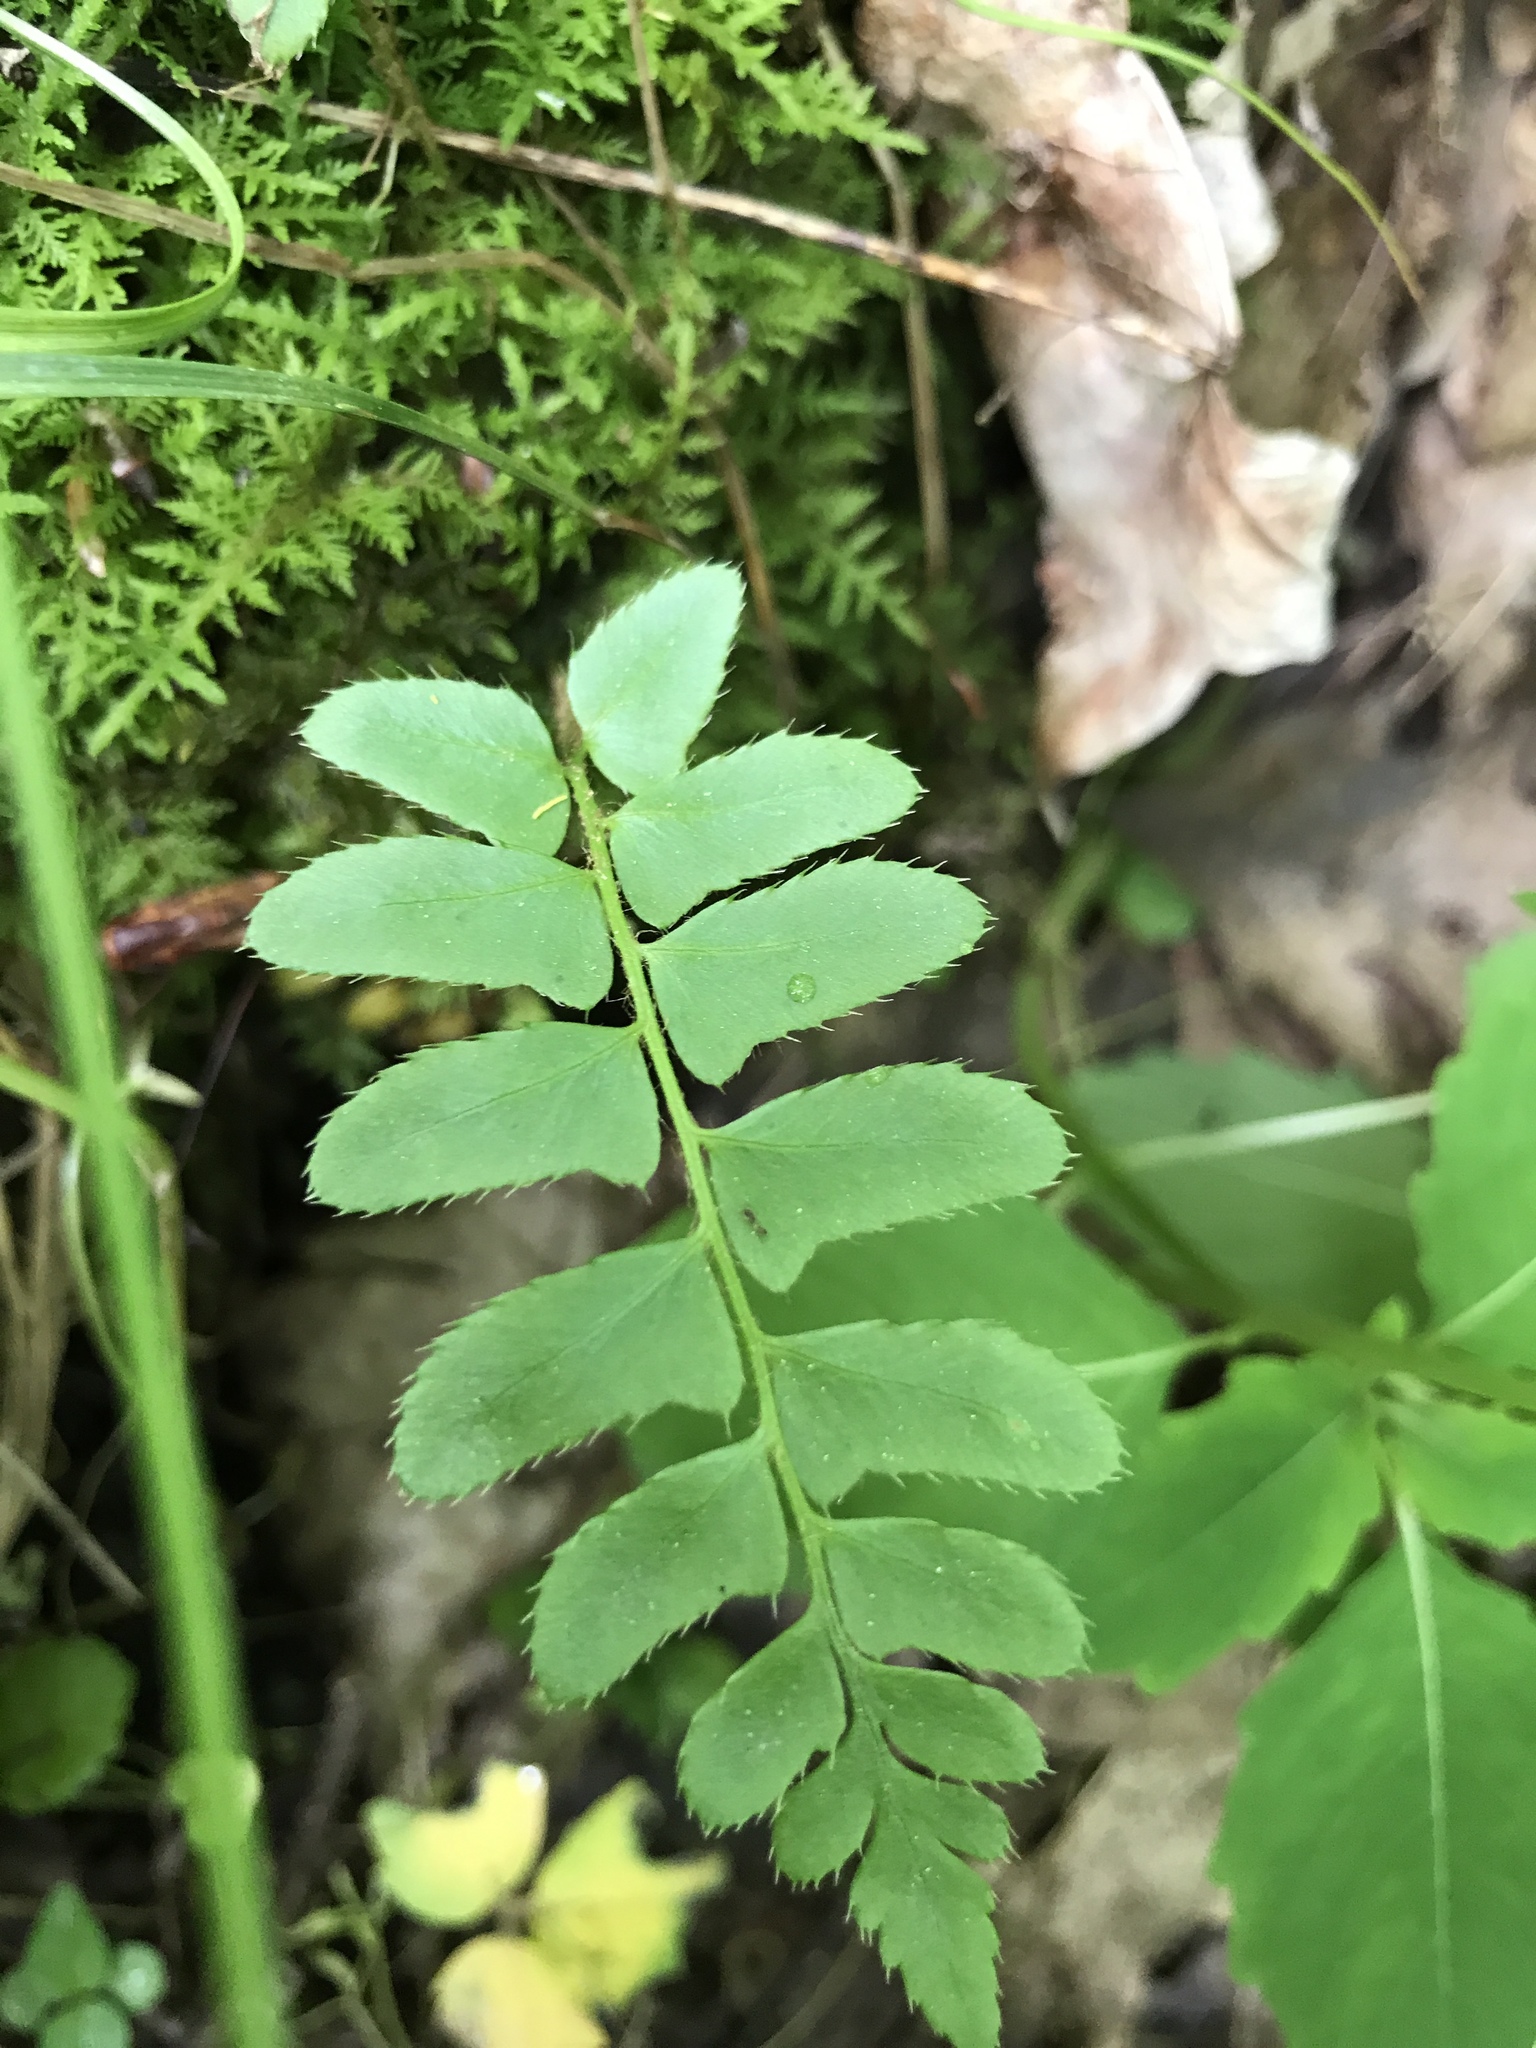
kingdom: Plantae
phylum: Tracheophyta
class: Polypodiopsida
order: Polypodiales
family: Dryopteridaceae
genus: Polystichum
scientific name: Polystichum acrostichoides
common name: Christmas fern
